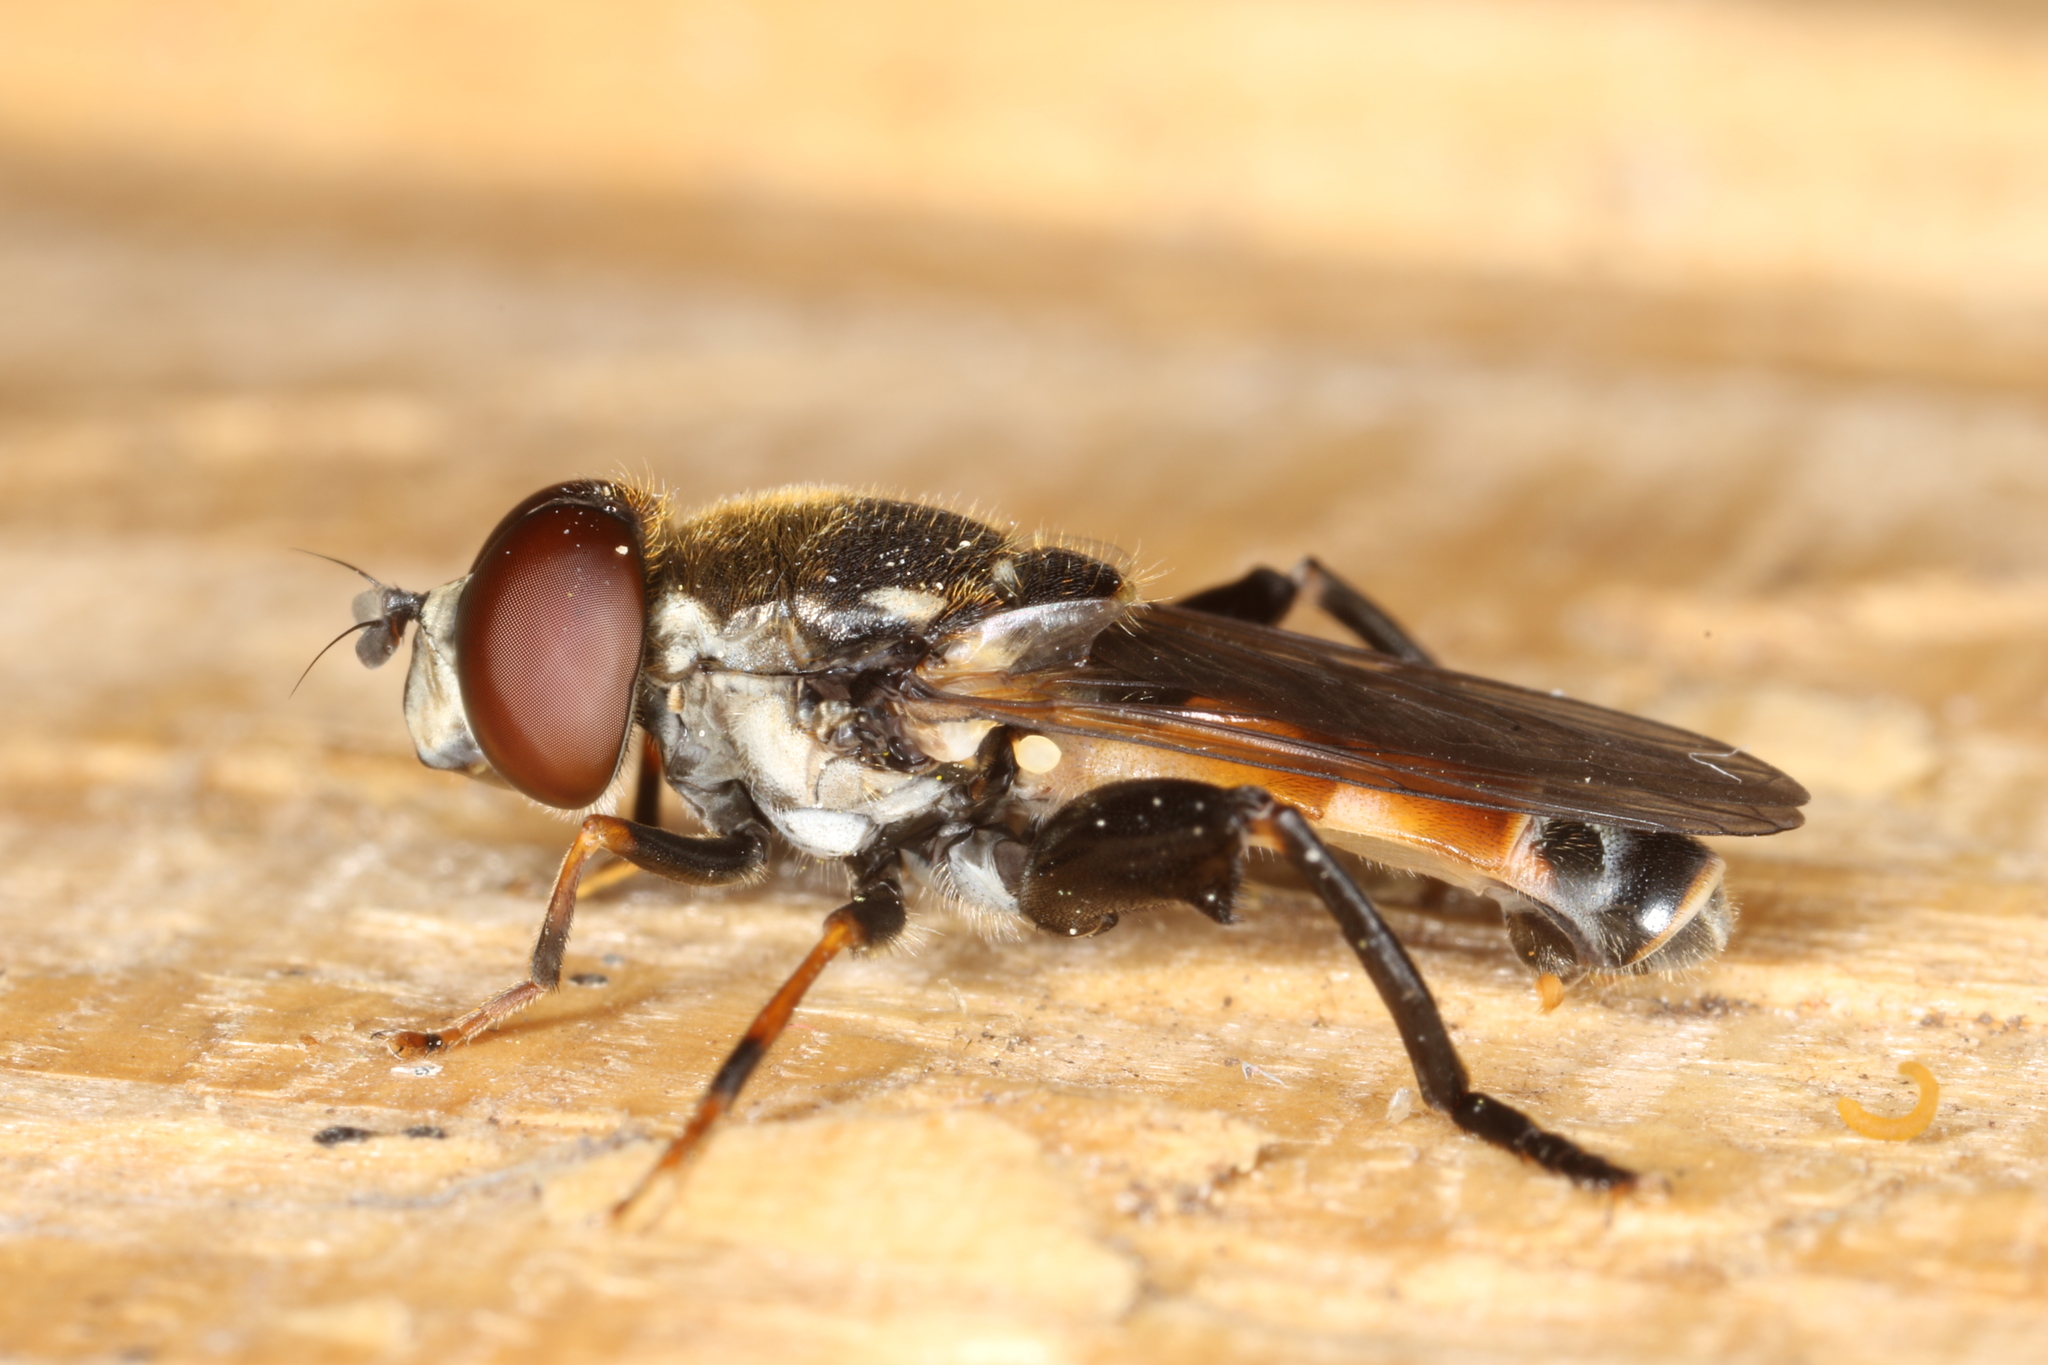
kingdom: Animalia
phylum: Arthropoda
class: Insecta
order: Diptera
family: Syrphidae
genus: Tropidia
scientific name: Tropidia scita
